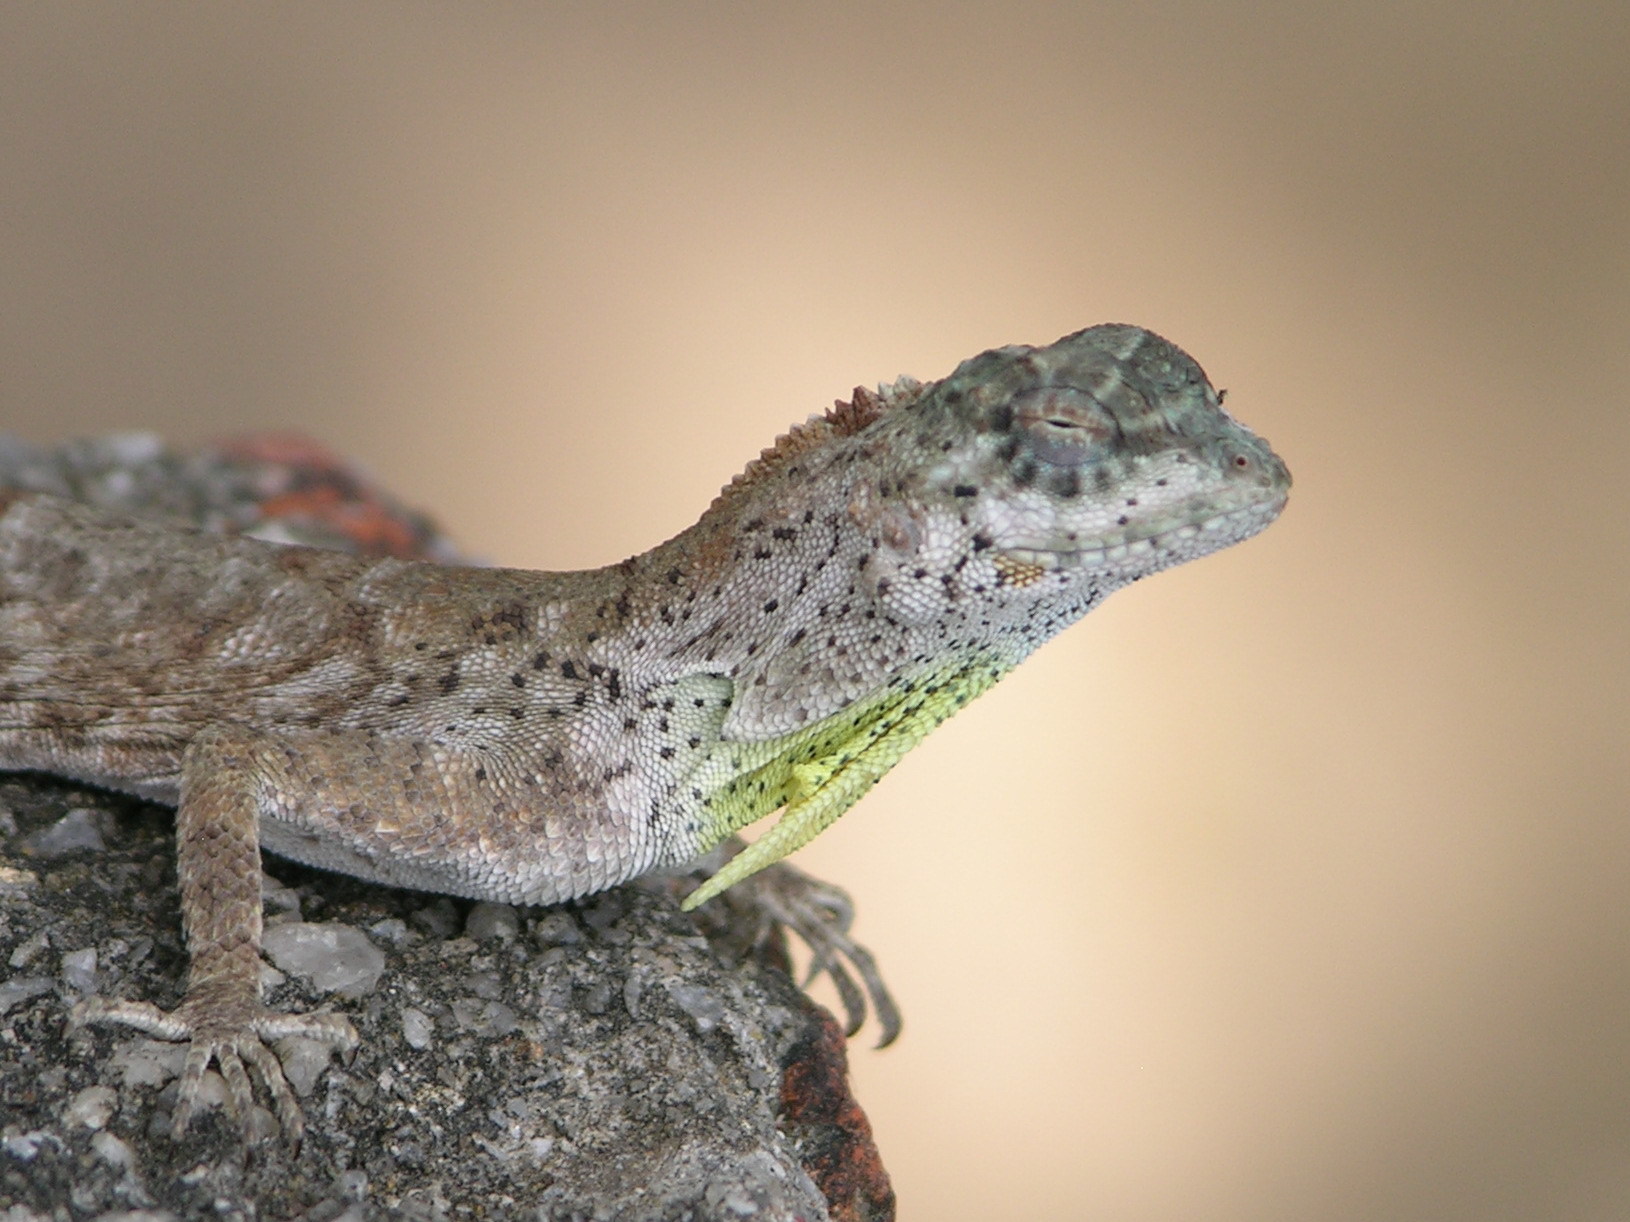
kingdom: Animalia
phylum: Chordata
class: Squamata
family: Agamidae
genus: Draco
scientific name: Draco sumatranus
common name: Common gliding lizard
